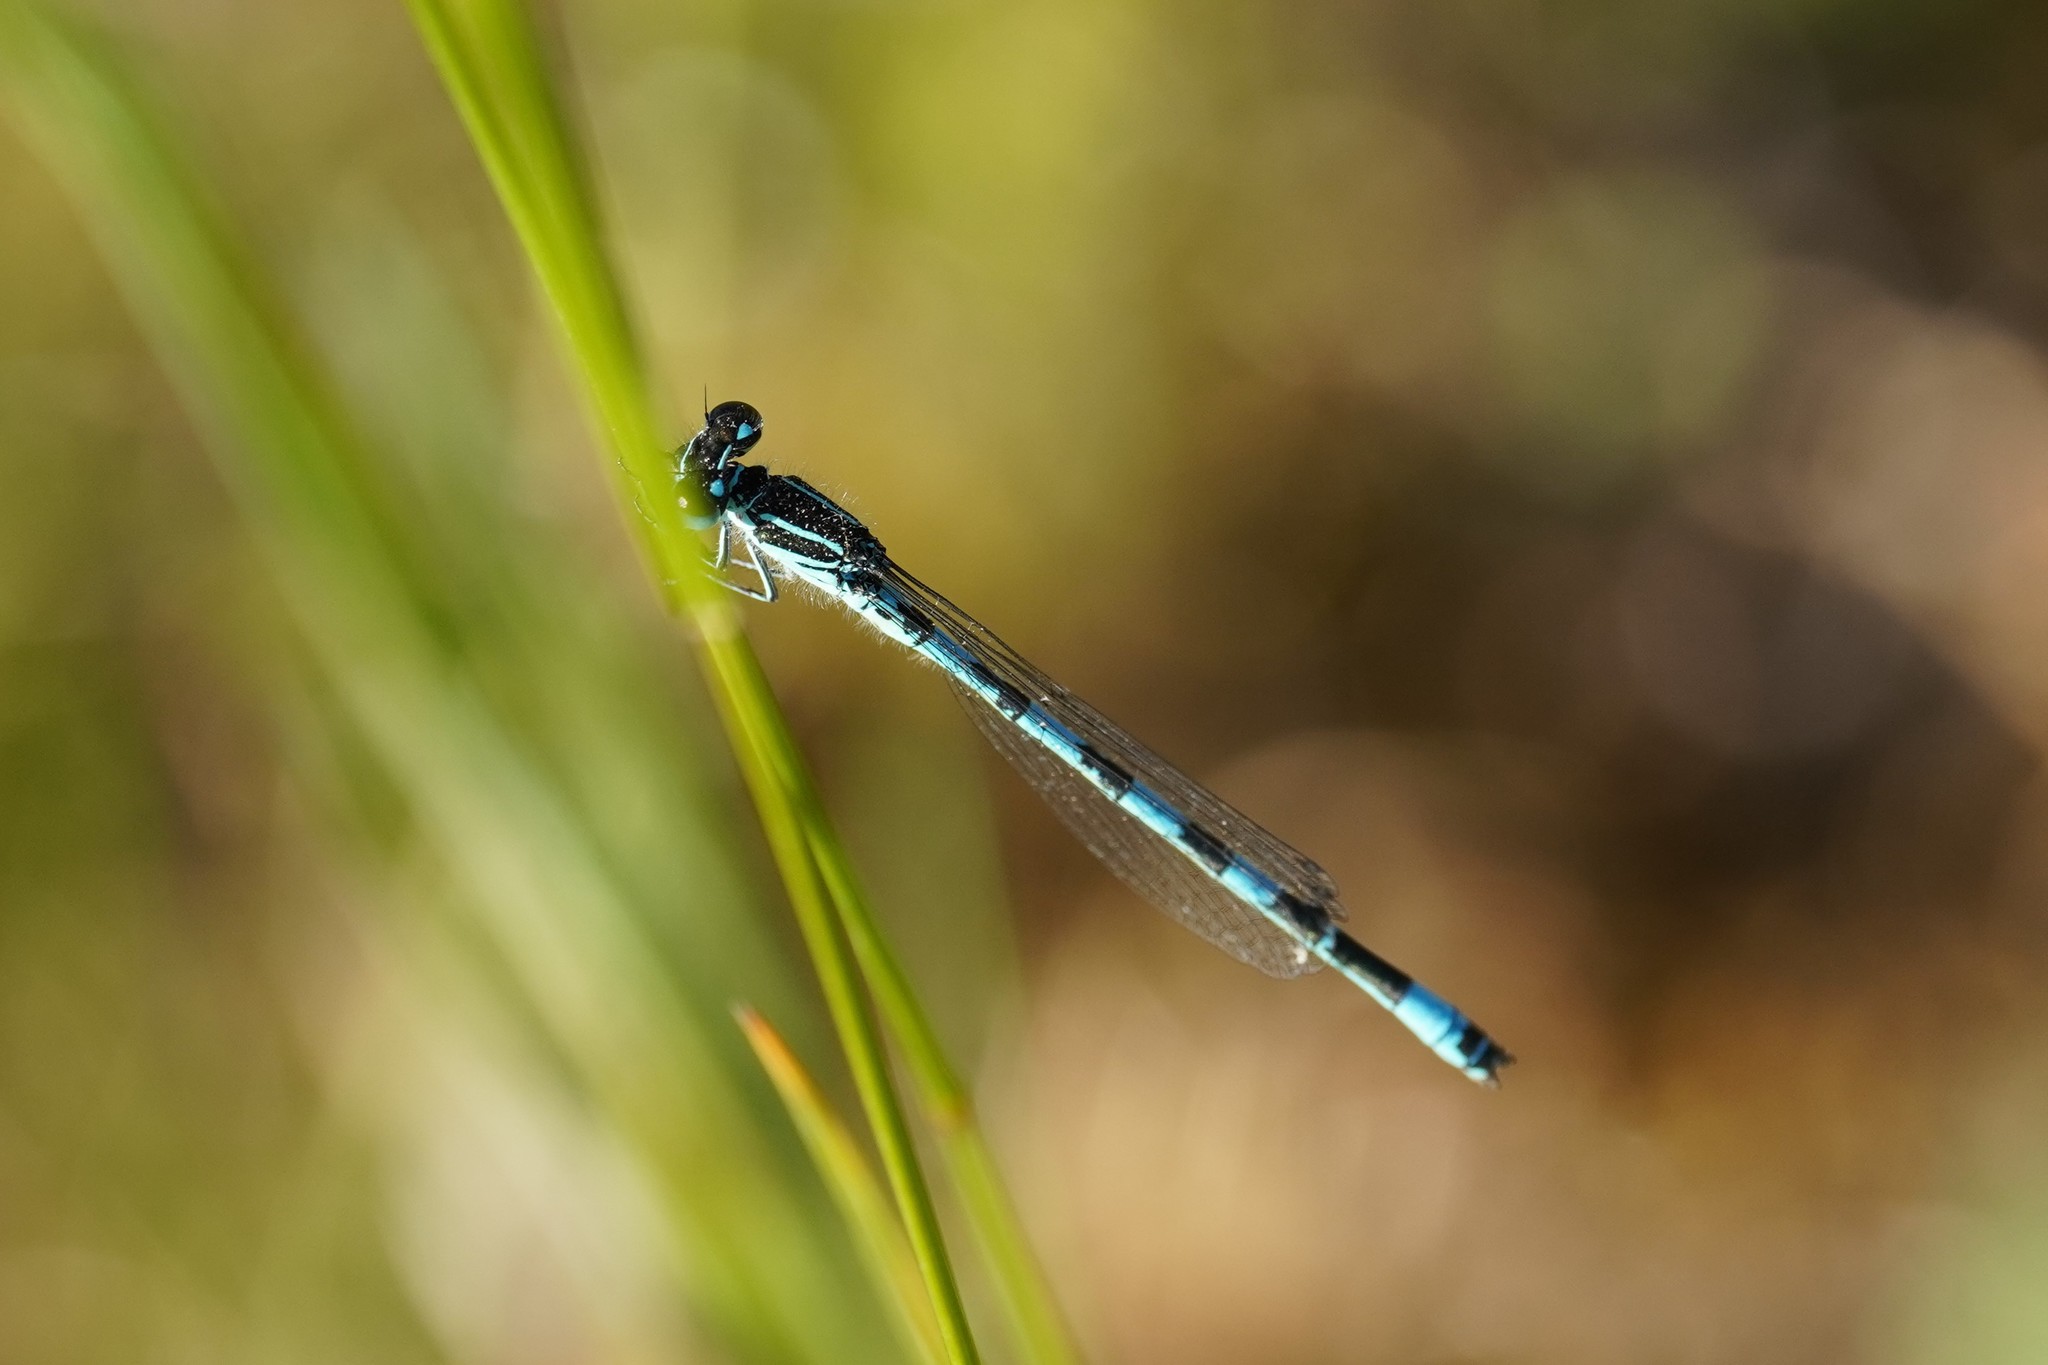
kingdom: Animalia
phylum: Arthropoda
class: Insecta
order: Odonata
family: Coenagrionidae
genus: Coenagrion
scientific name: Coenagrion mercuriale
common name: Southern damselfly
